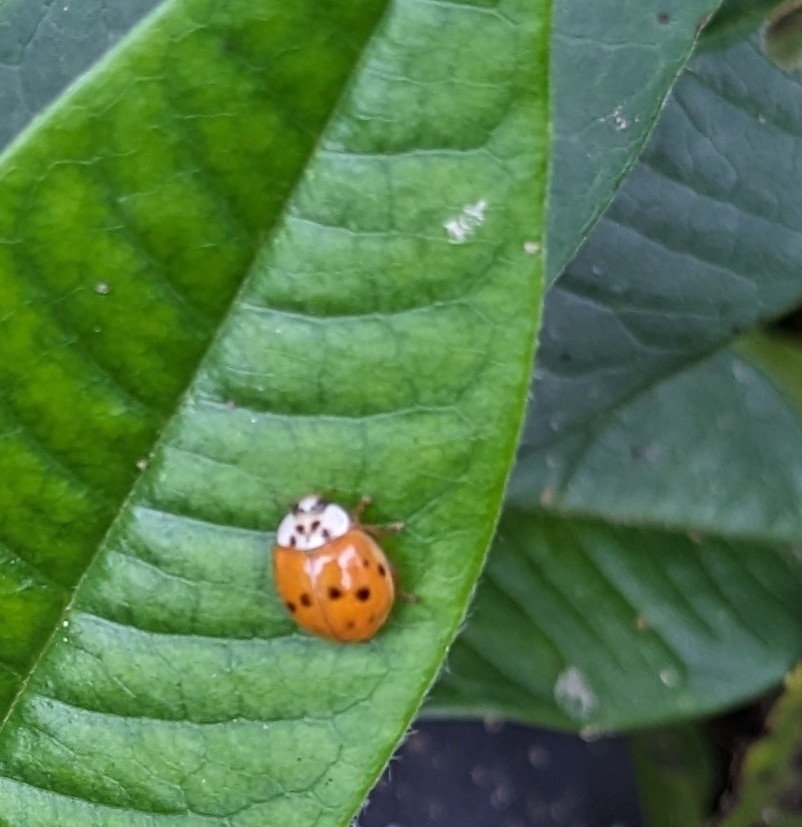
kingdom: Animalia
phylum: Arthropoda
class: Insecta
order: Coleoptera
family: Coccinellidae
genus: Harmonia
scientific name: Harmonia axyridis
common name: Harlequin ladybird
